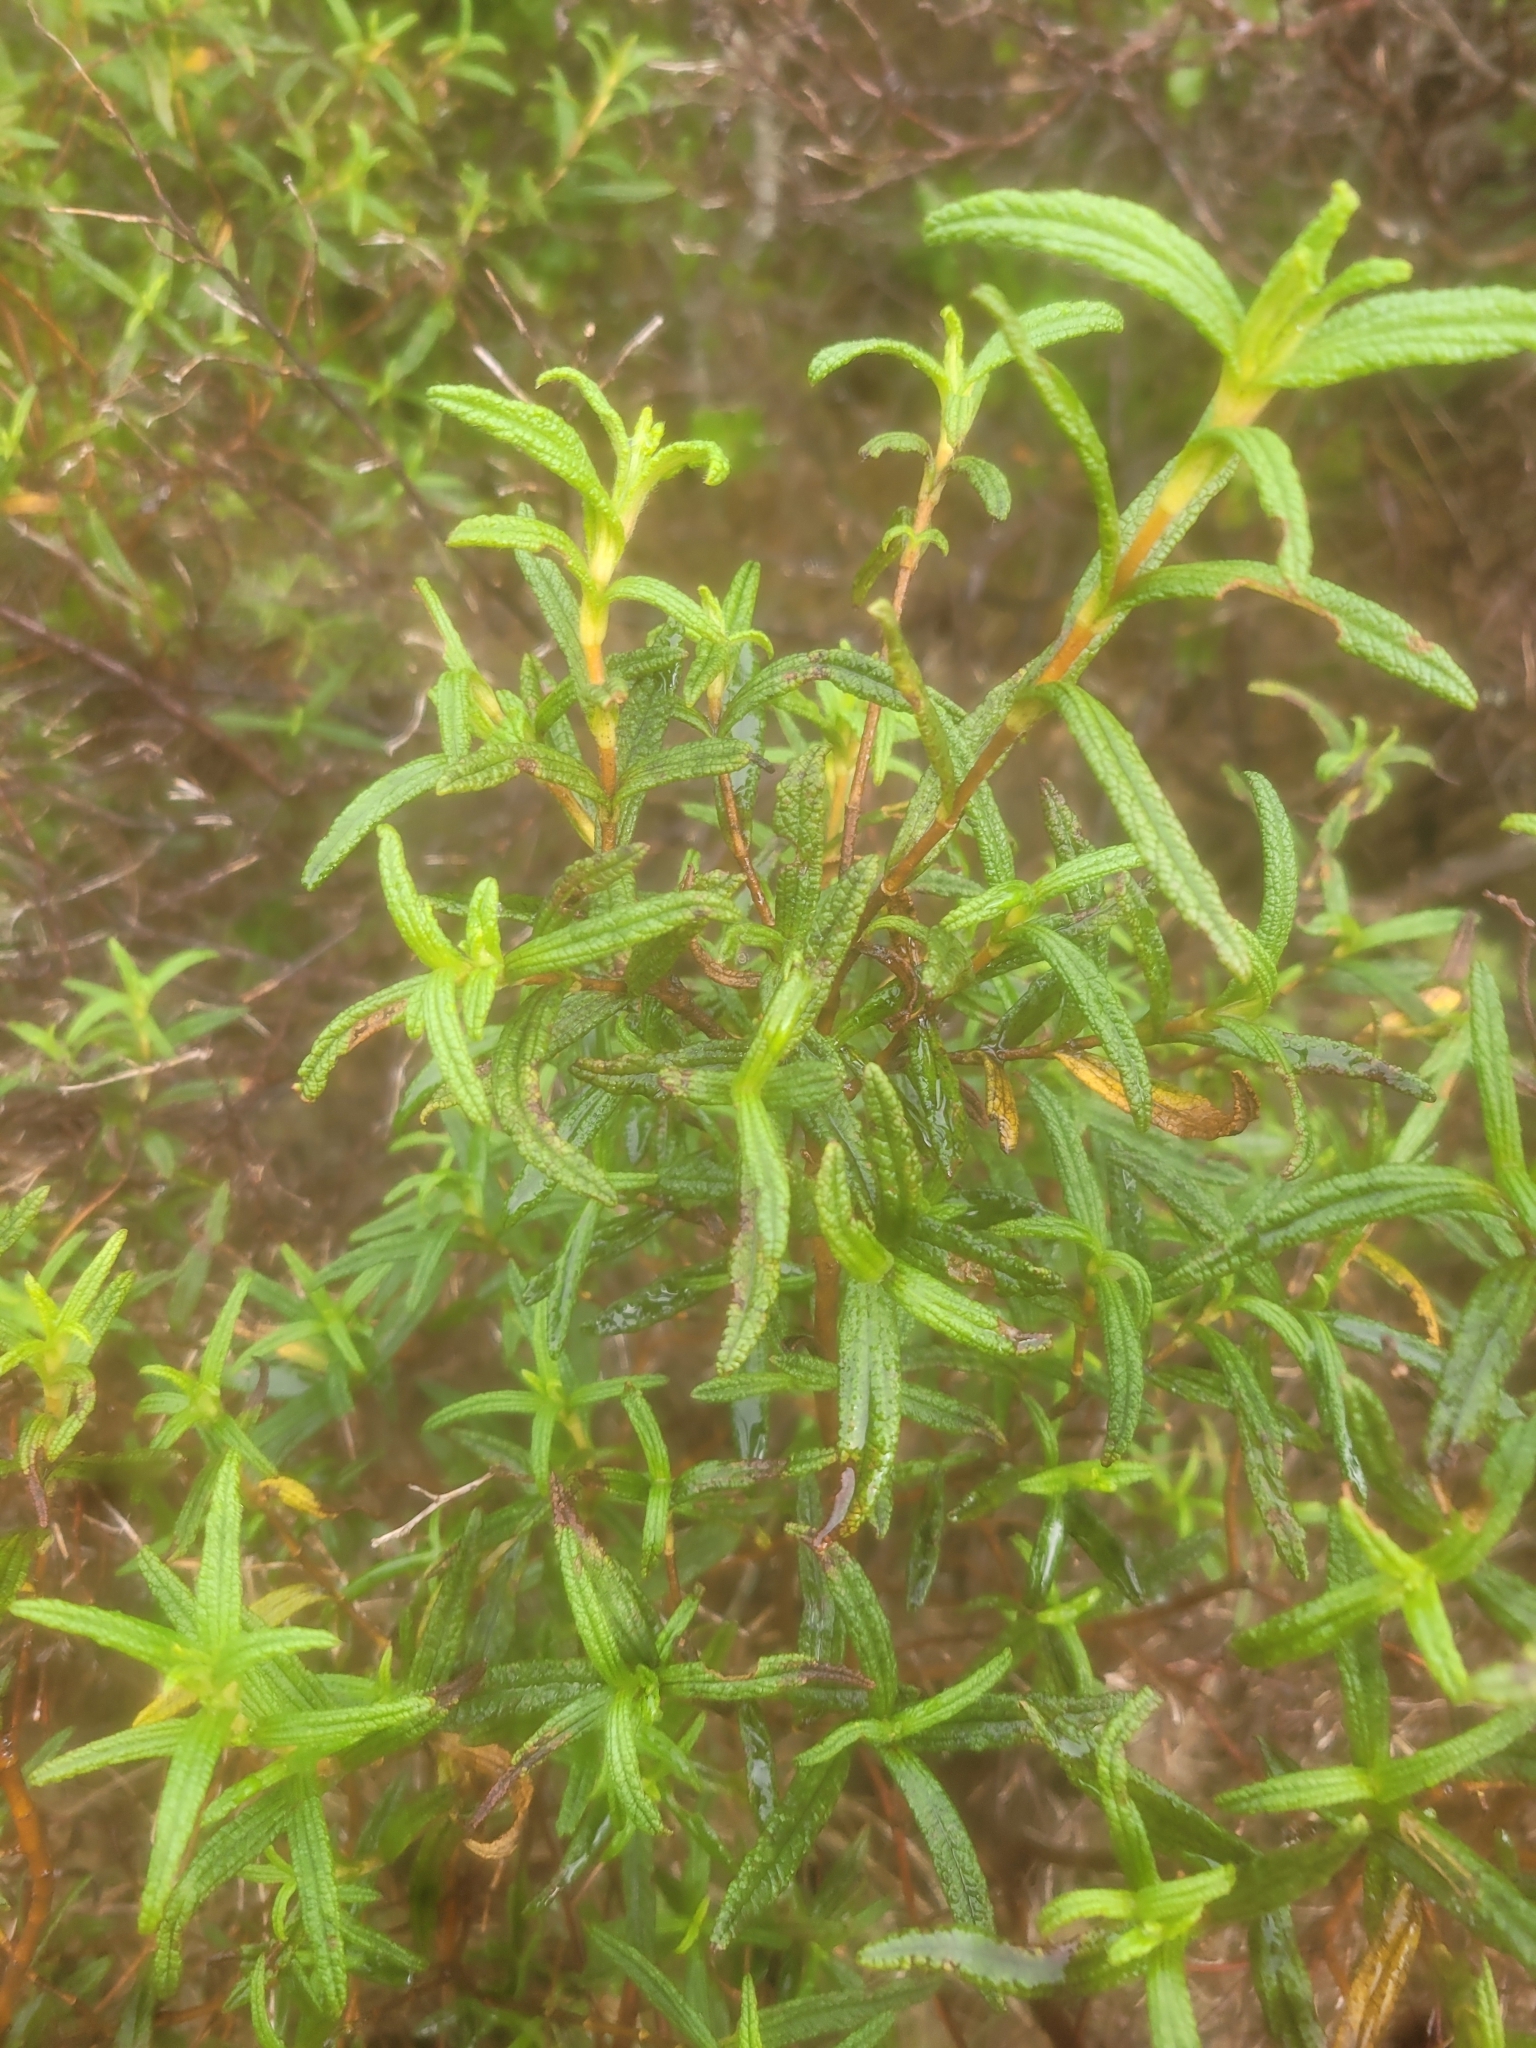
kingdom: Plantae
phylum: Tracheophyta
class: Magnoliopsida
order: Malvales
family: Cistaceae
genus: Cistus
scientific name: Cistus monspeliensis
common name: Montpelier cistus
